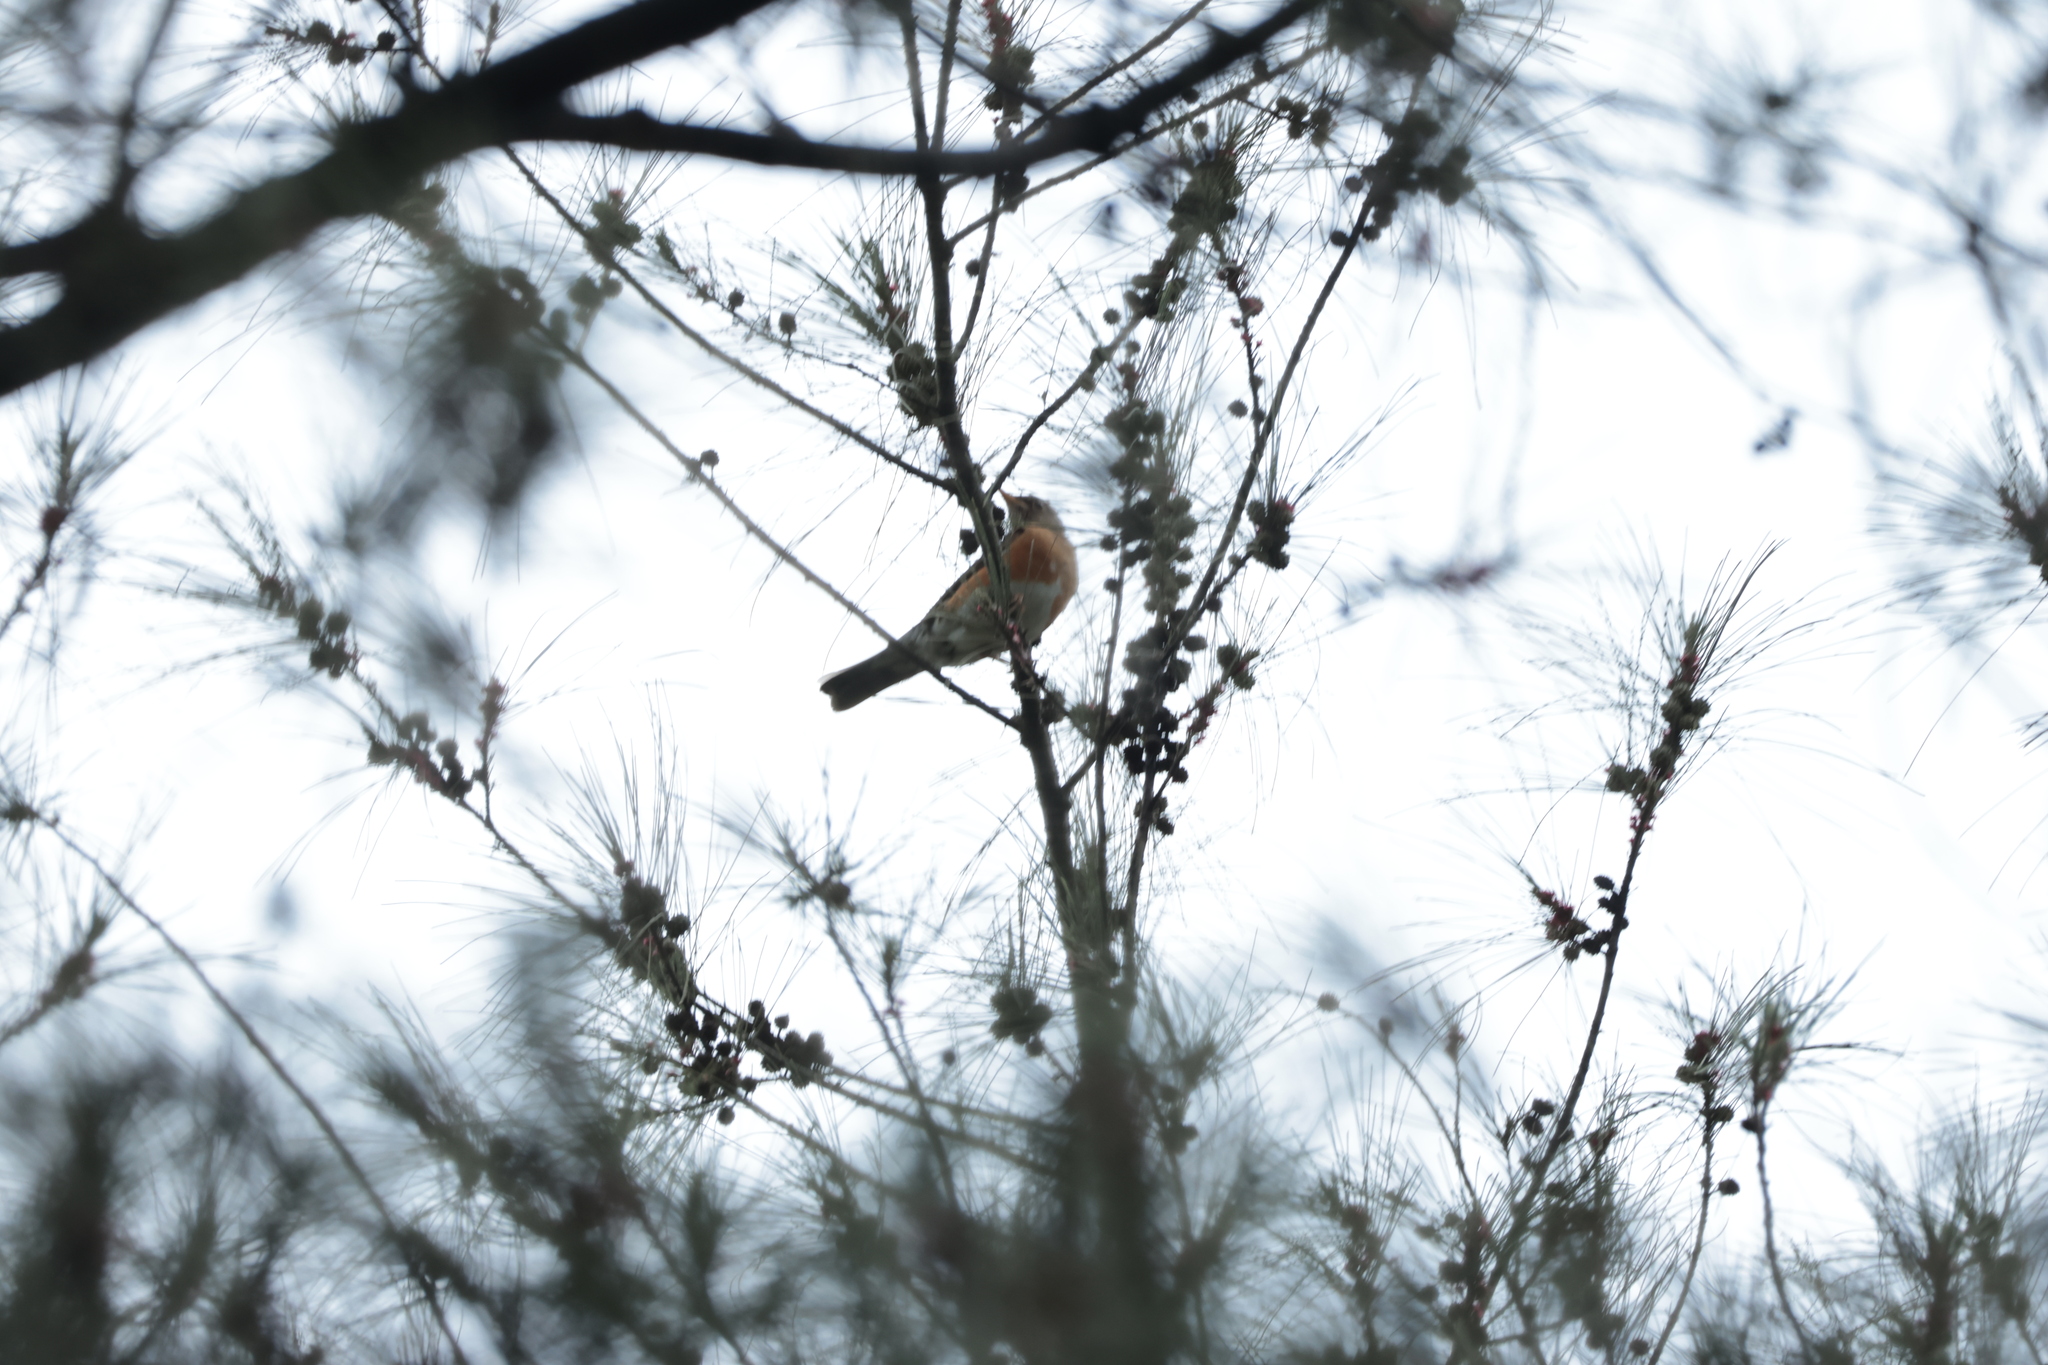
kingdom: Animalia
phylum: Chordata
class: Aves
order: Passeriformes
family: Turdidae
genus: Turdus
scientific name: Turdus chrysolaus
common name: Brown-headed thrush
